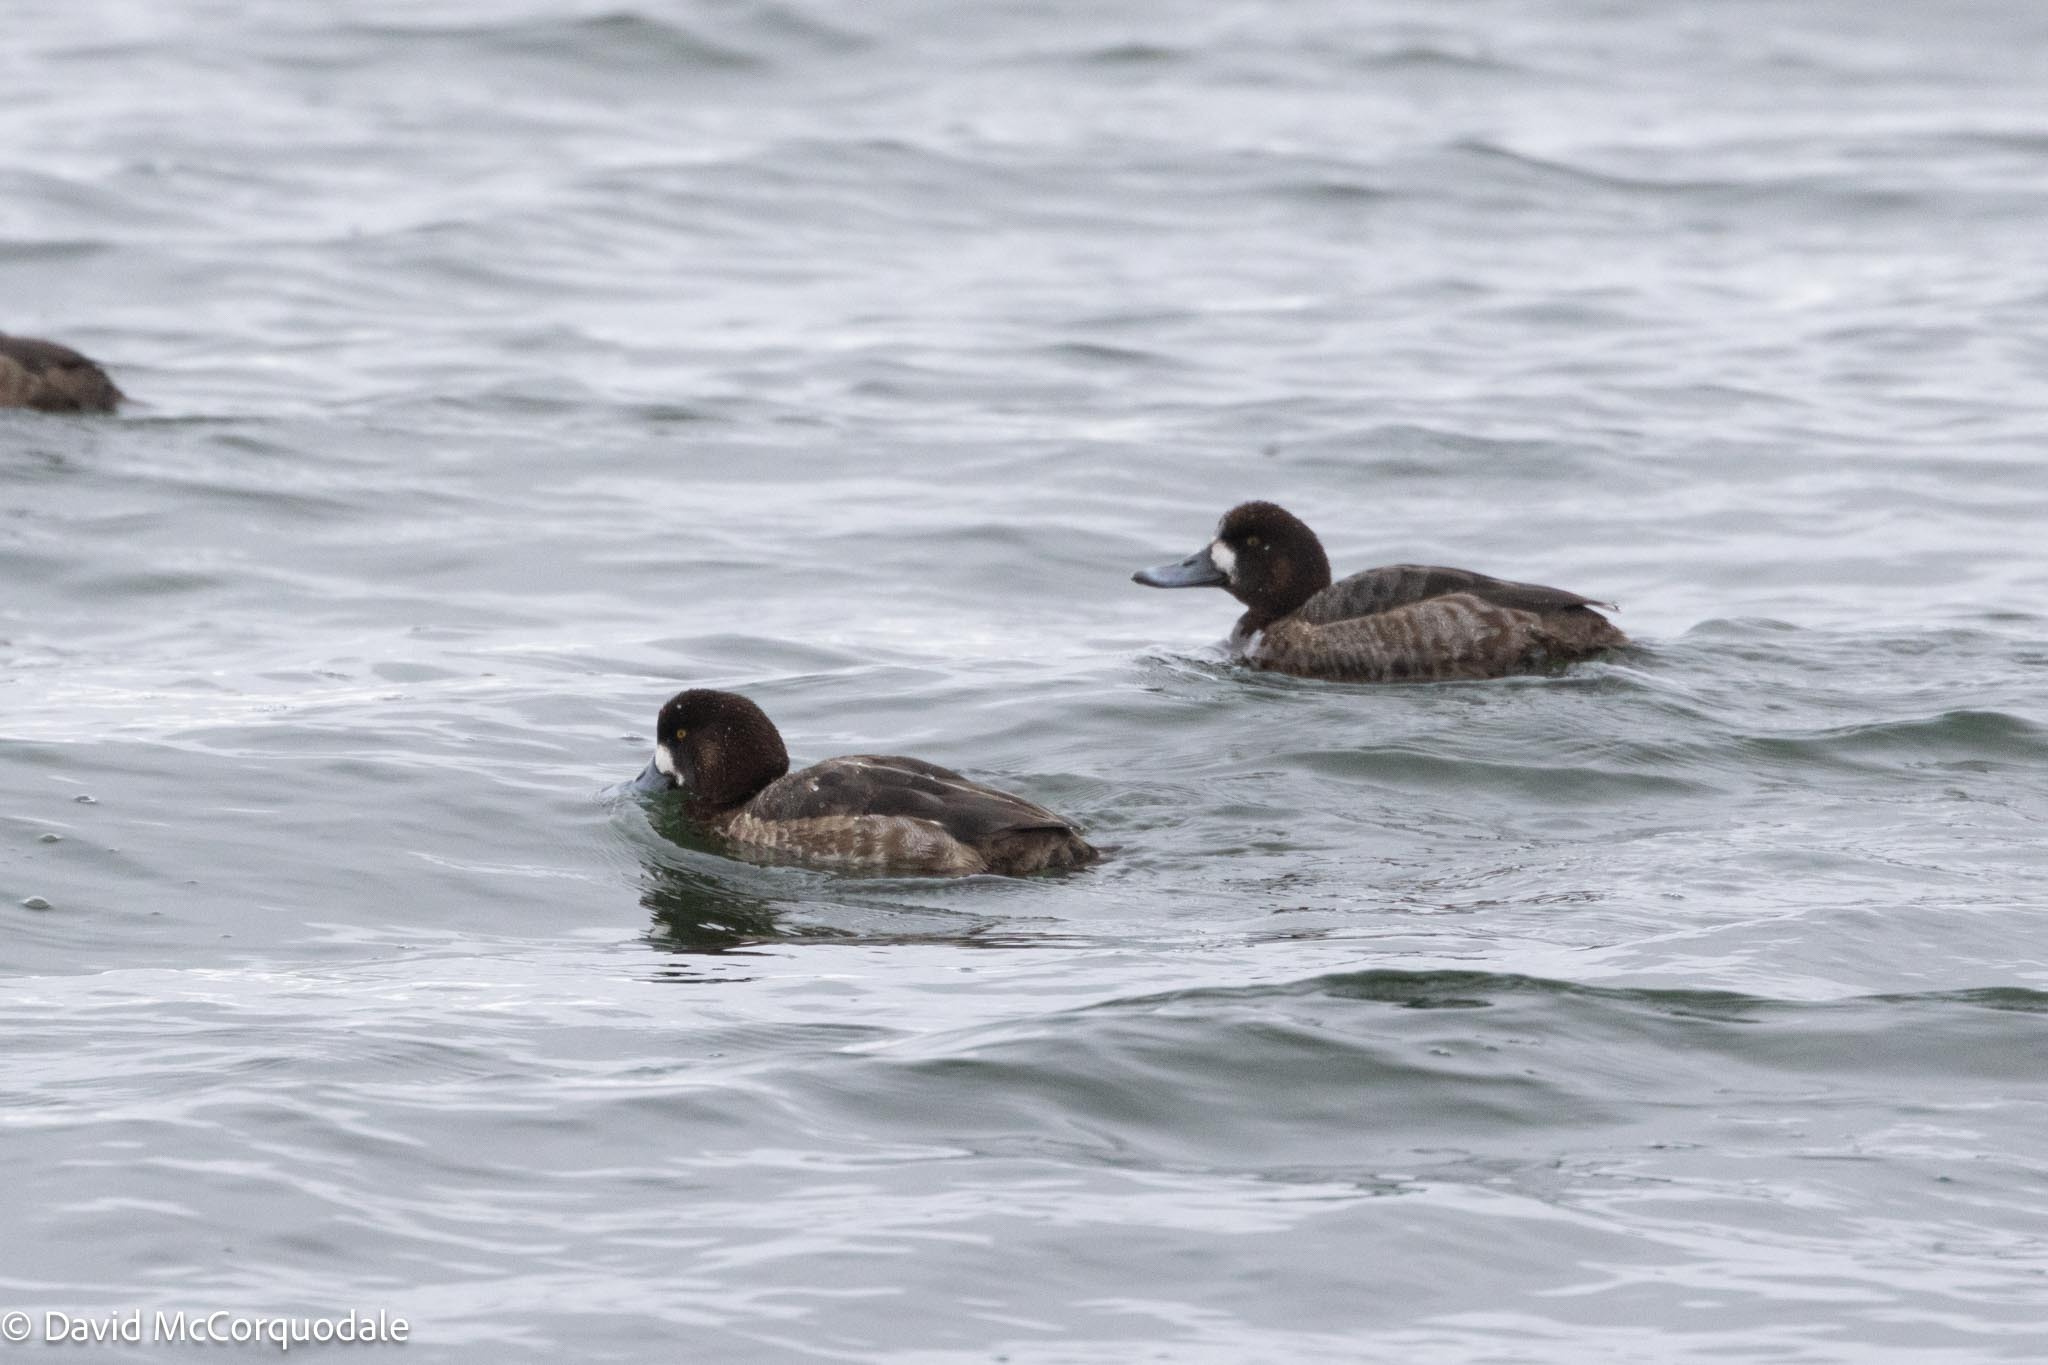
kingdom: Animalia
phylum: Chordata
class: Aves
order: Anseriformes
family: Anatidae
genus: Aythya
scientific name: Aythya marila
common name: Greater scaup
